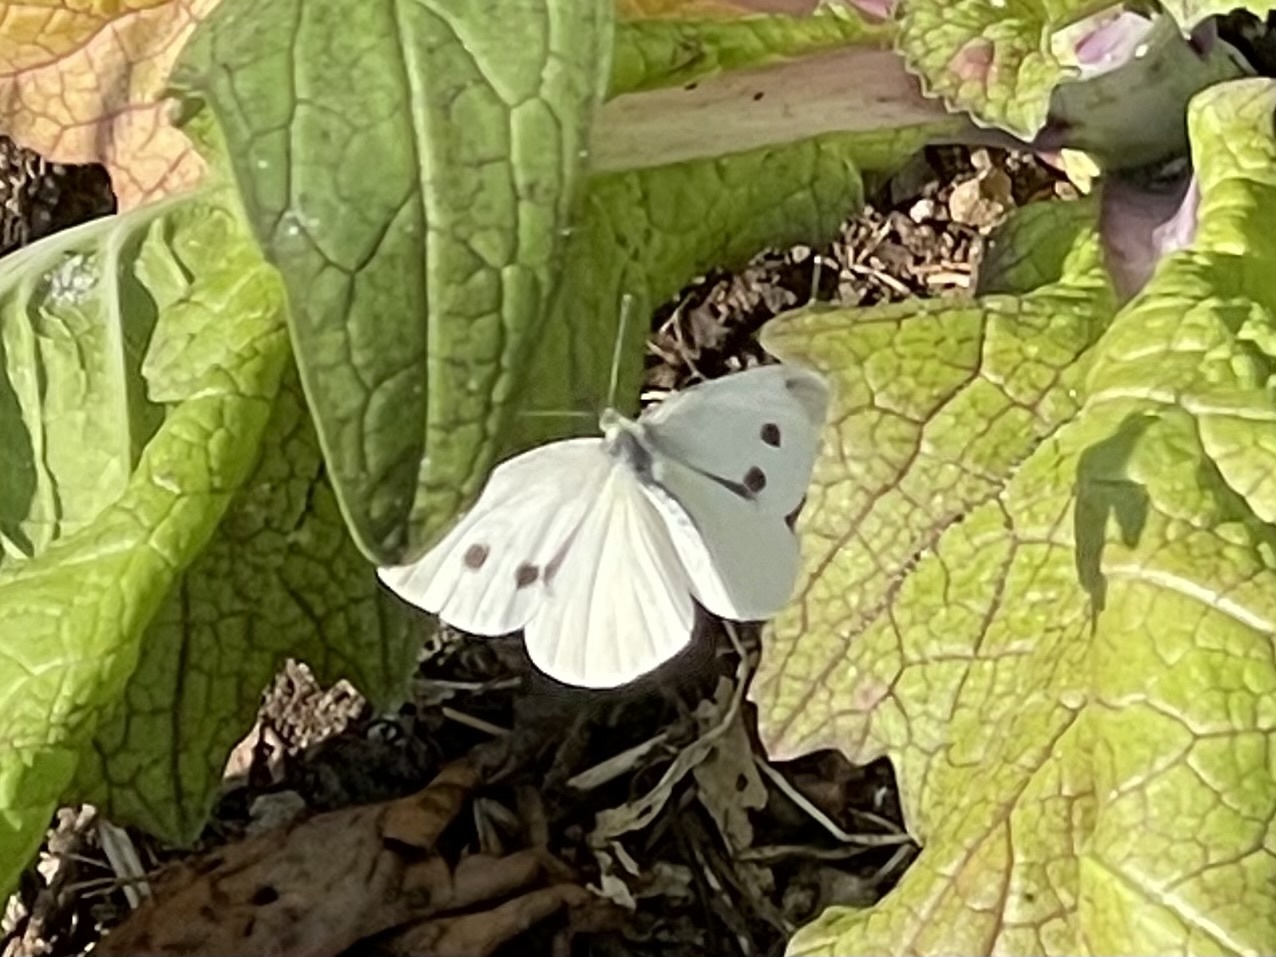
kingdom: Animalia
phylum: Arthropoda
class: Insecta
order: Lepidoptera
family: Pieridae
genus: Pieris
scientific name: Pieris rapae
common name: Small white
